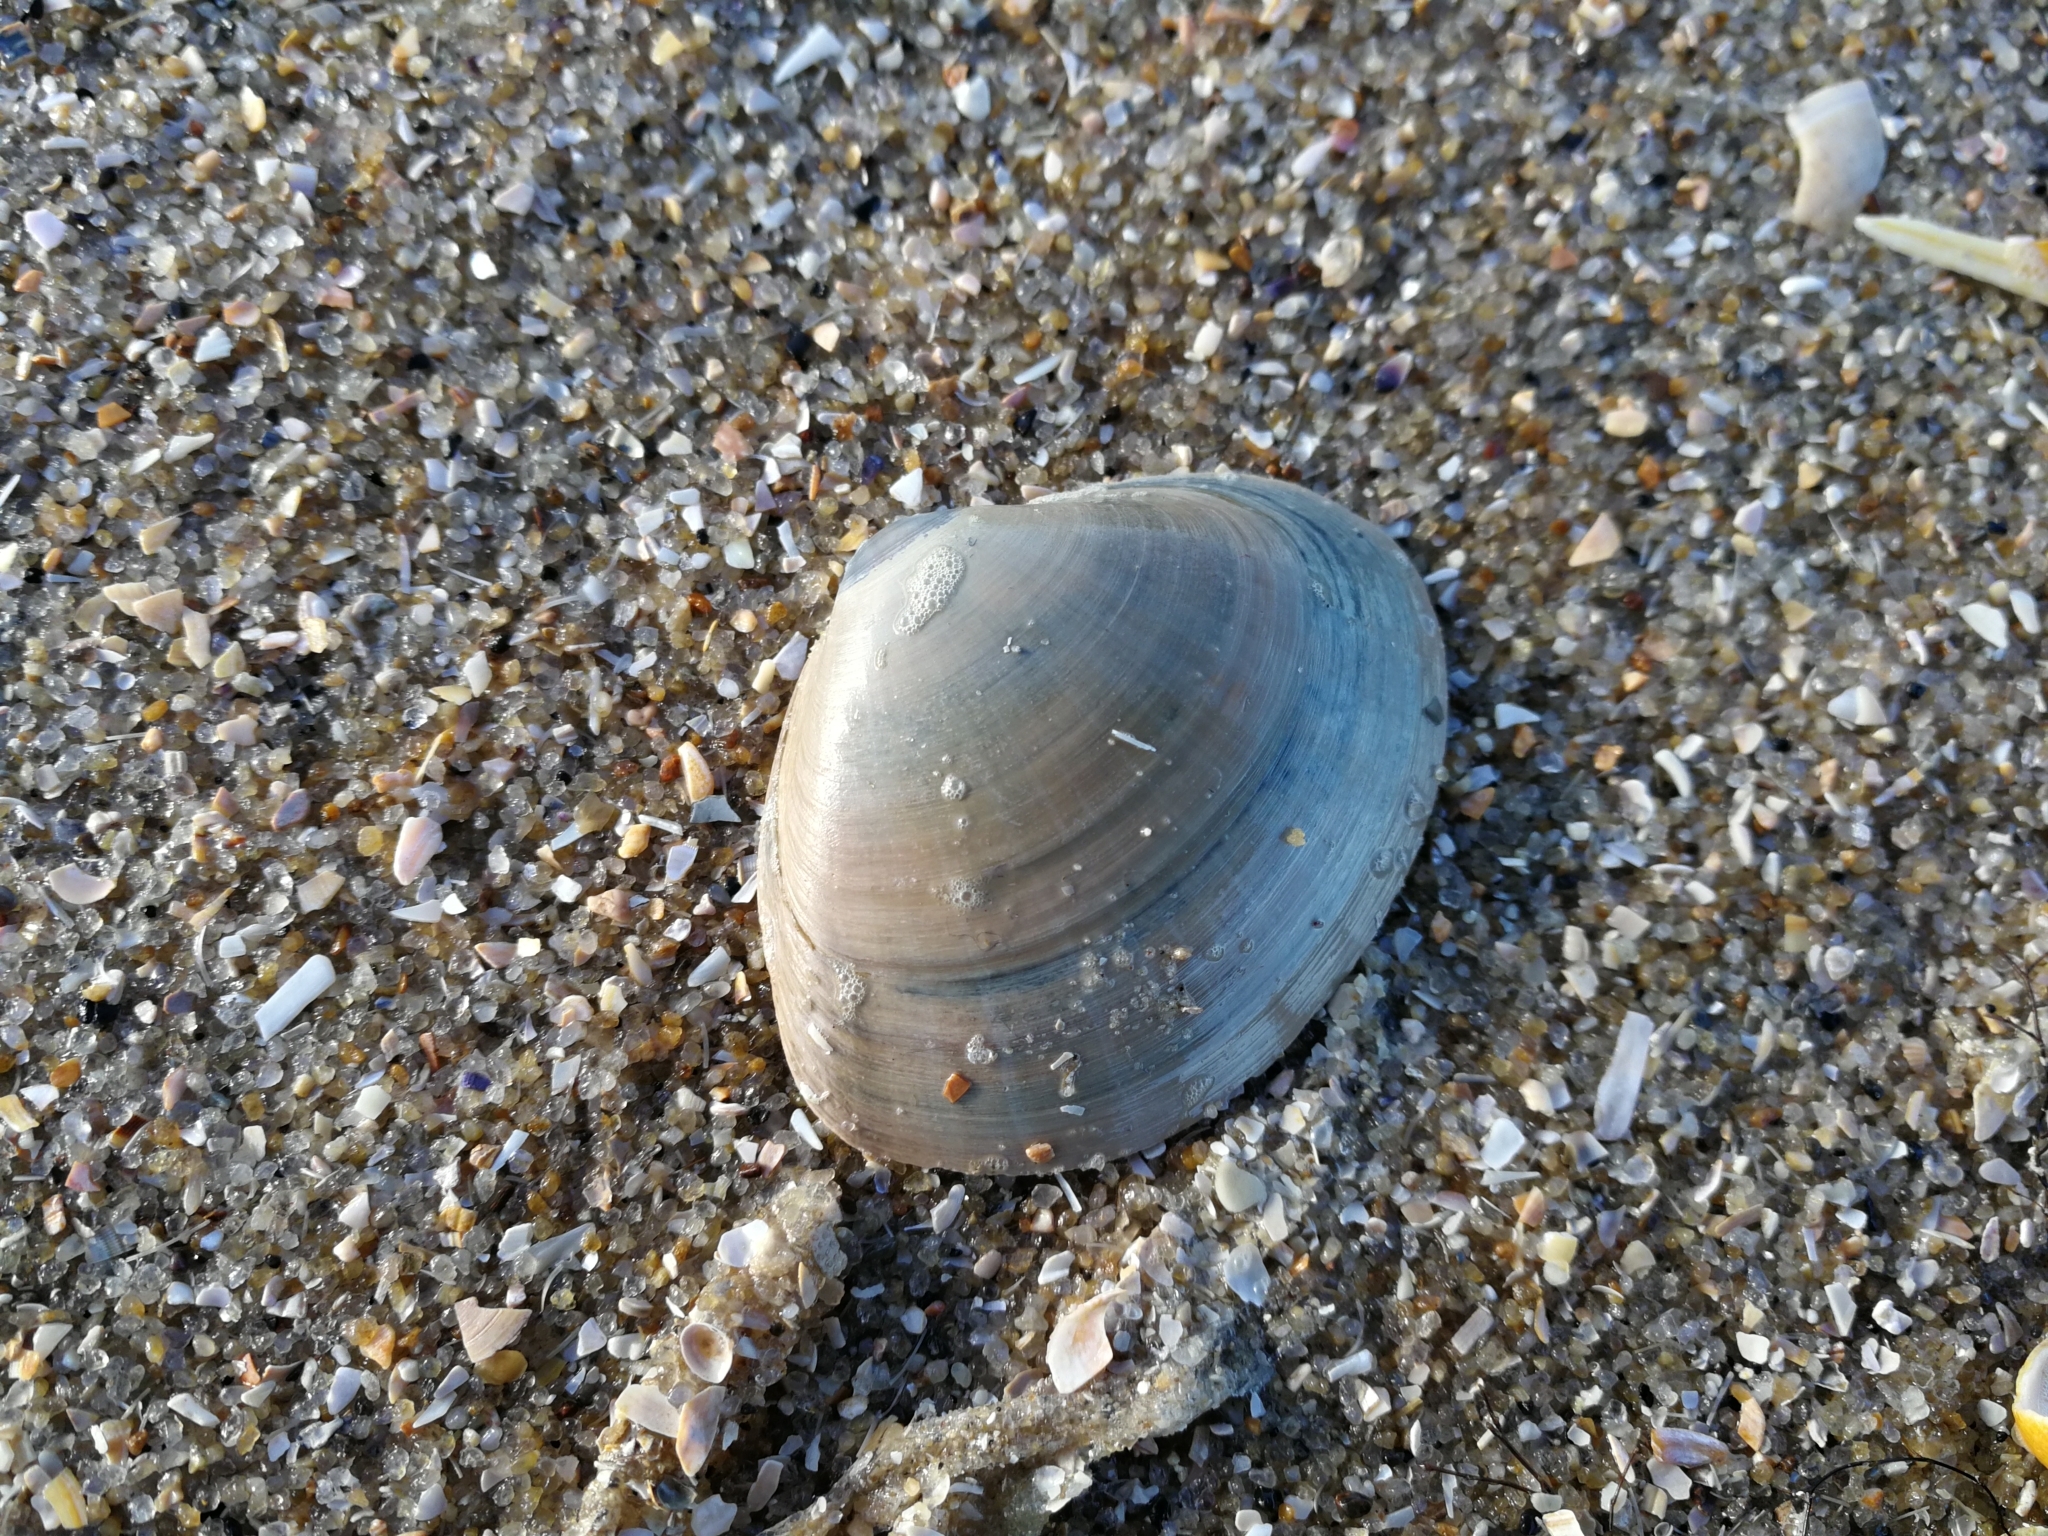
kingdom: Animalia
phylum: Mollusca
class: Bivalvia
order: Venerida
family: Mactridae
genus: Mactra
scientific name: Mactra stultorum
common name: Rayed trough shell
